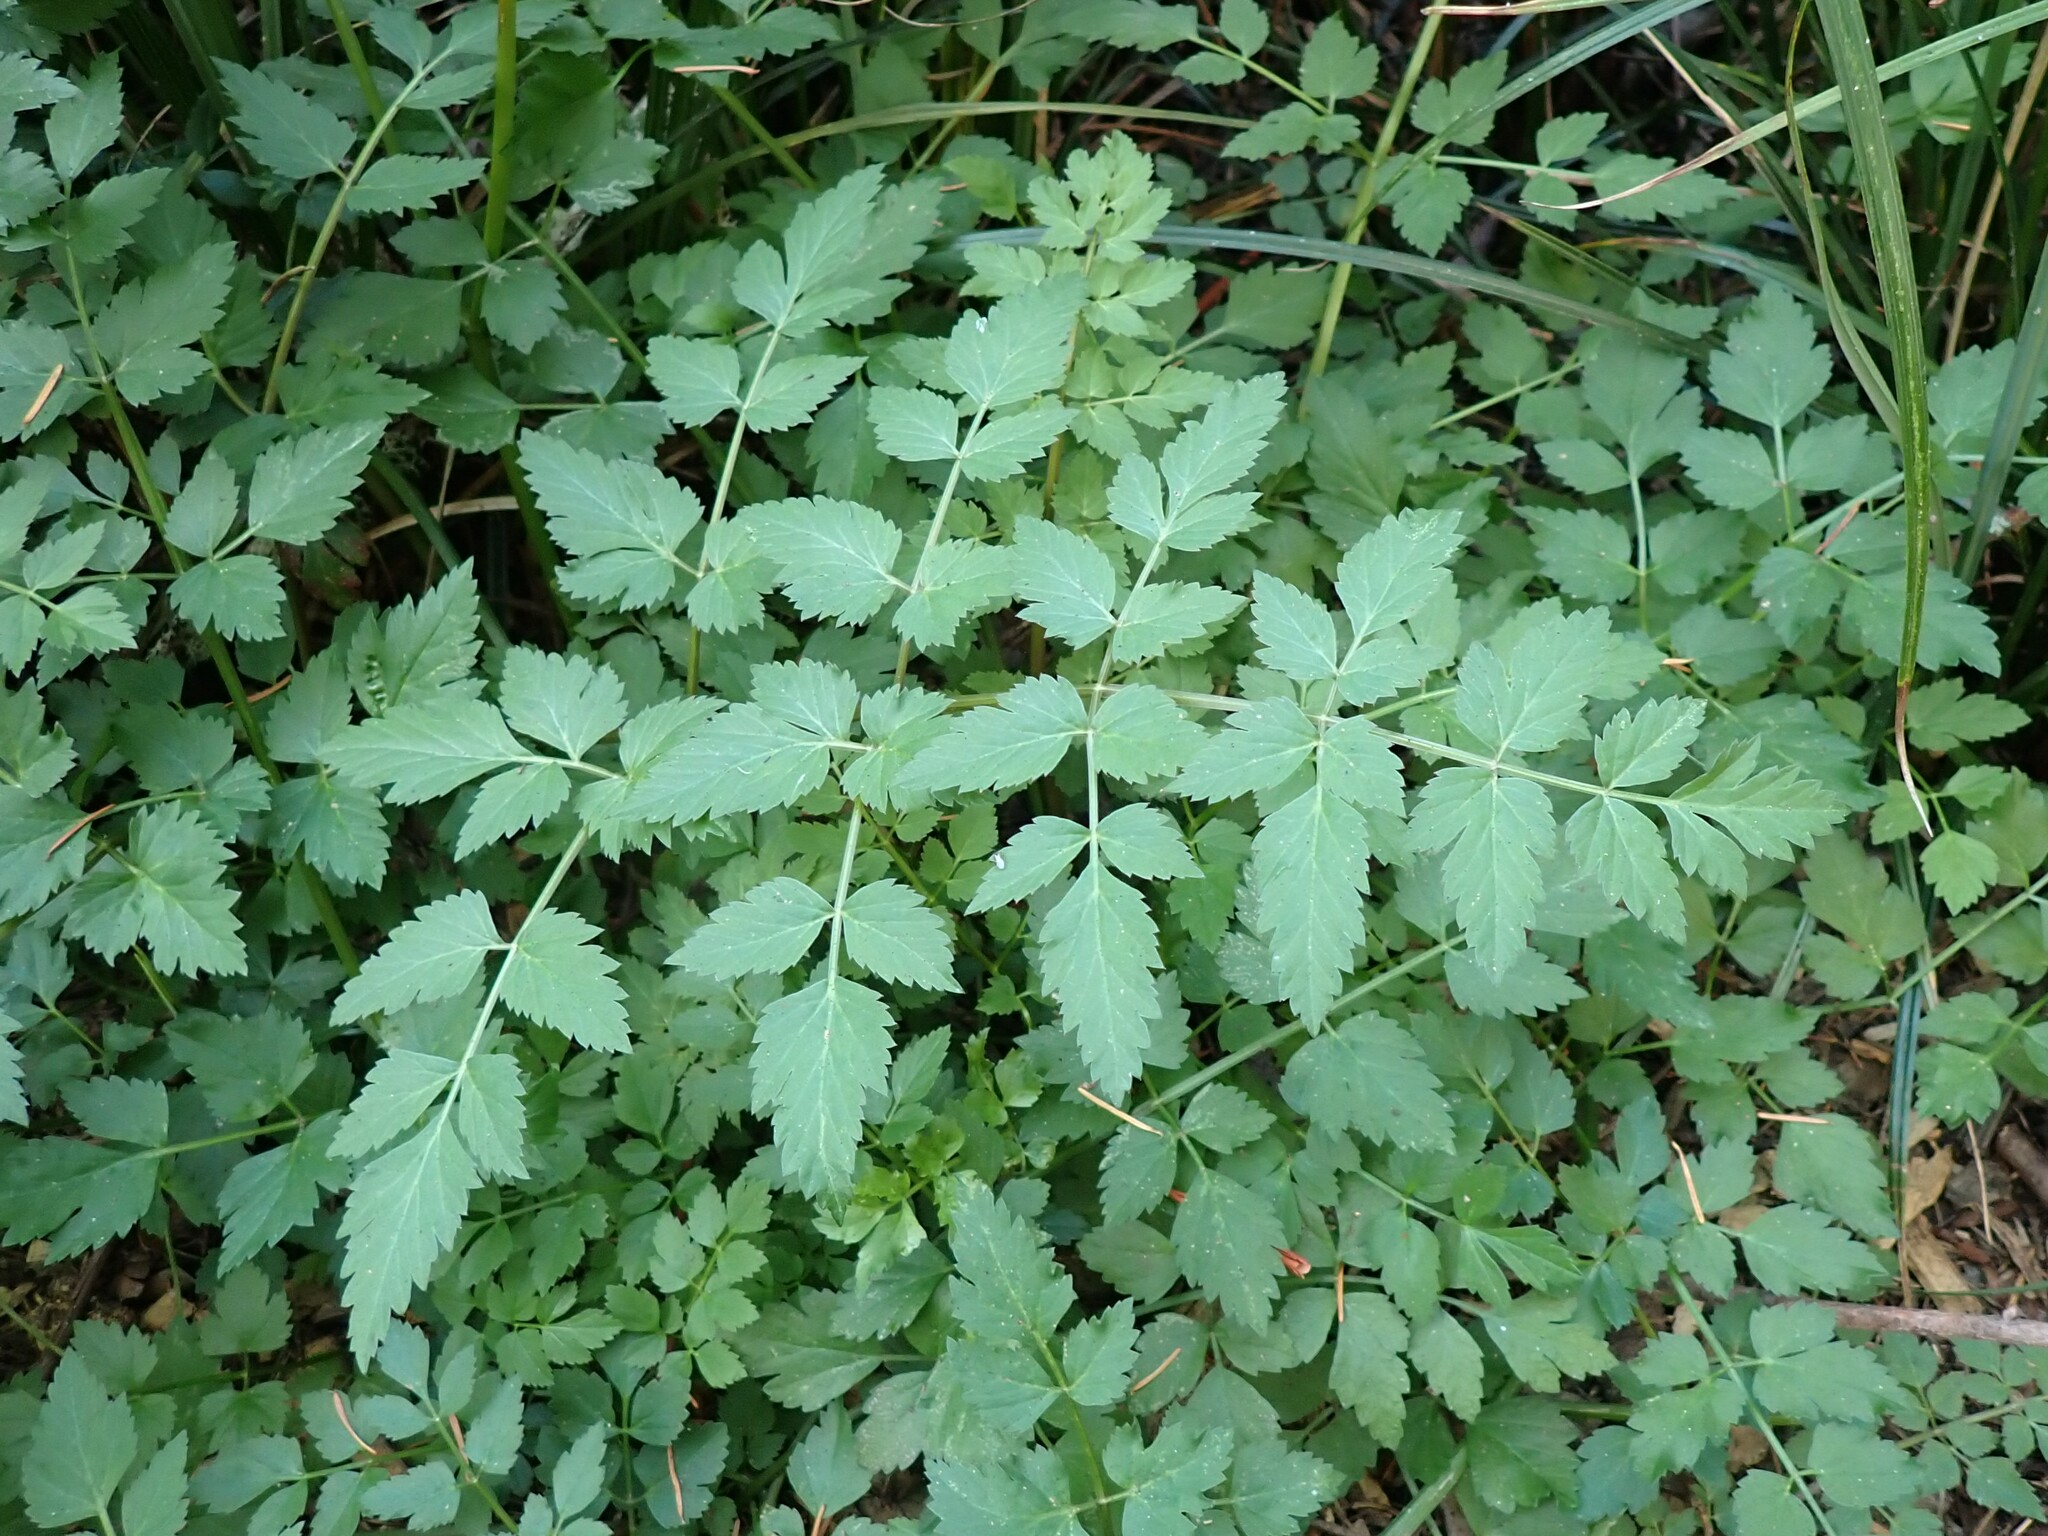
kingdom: Plantae
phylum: Tracheophyta
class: Magnoliopsida
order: Apiales
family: Apiaceae
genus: Oenanthe
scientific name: Oenanthe sarmentosa
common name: American water-parsley
